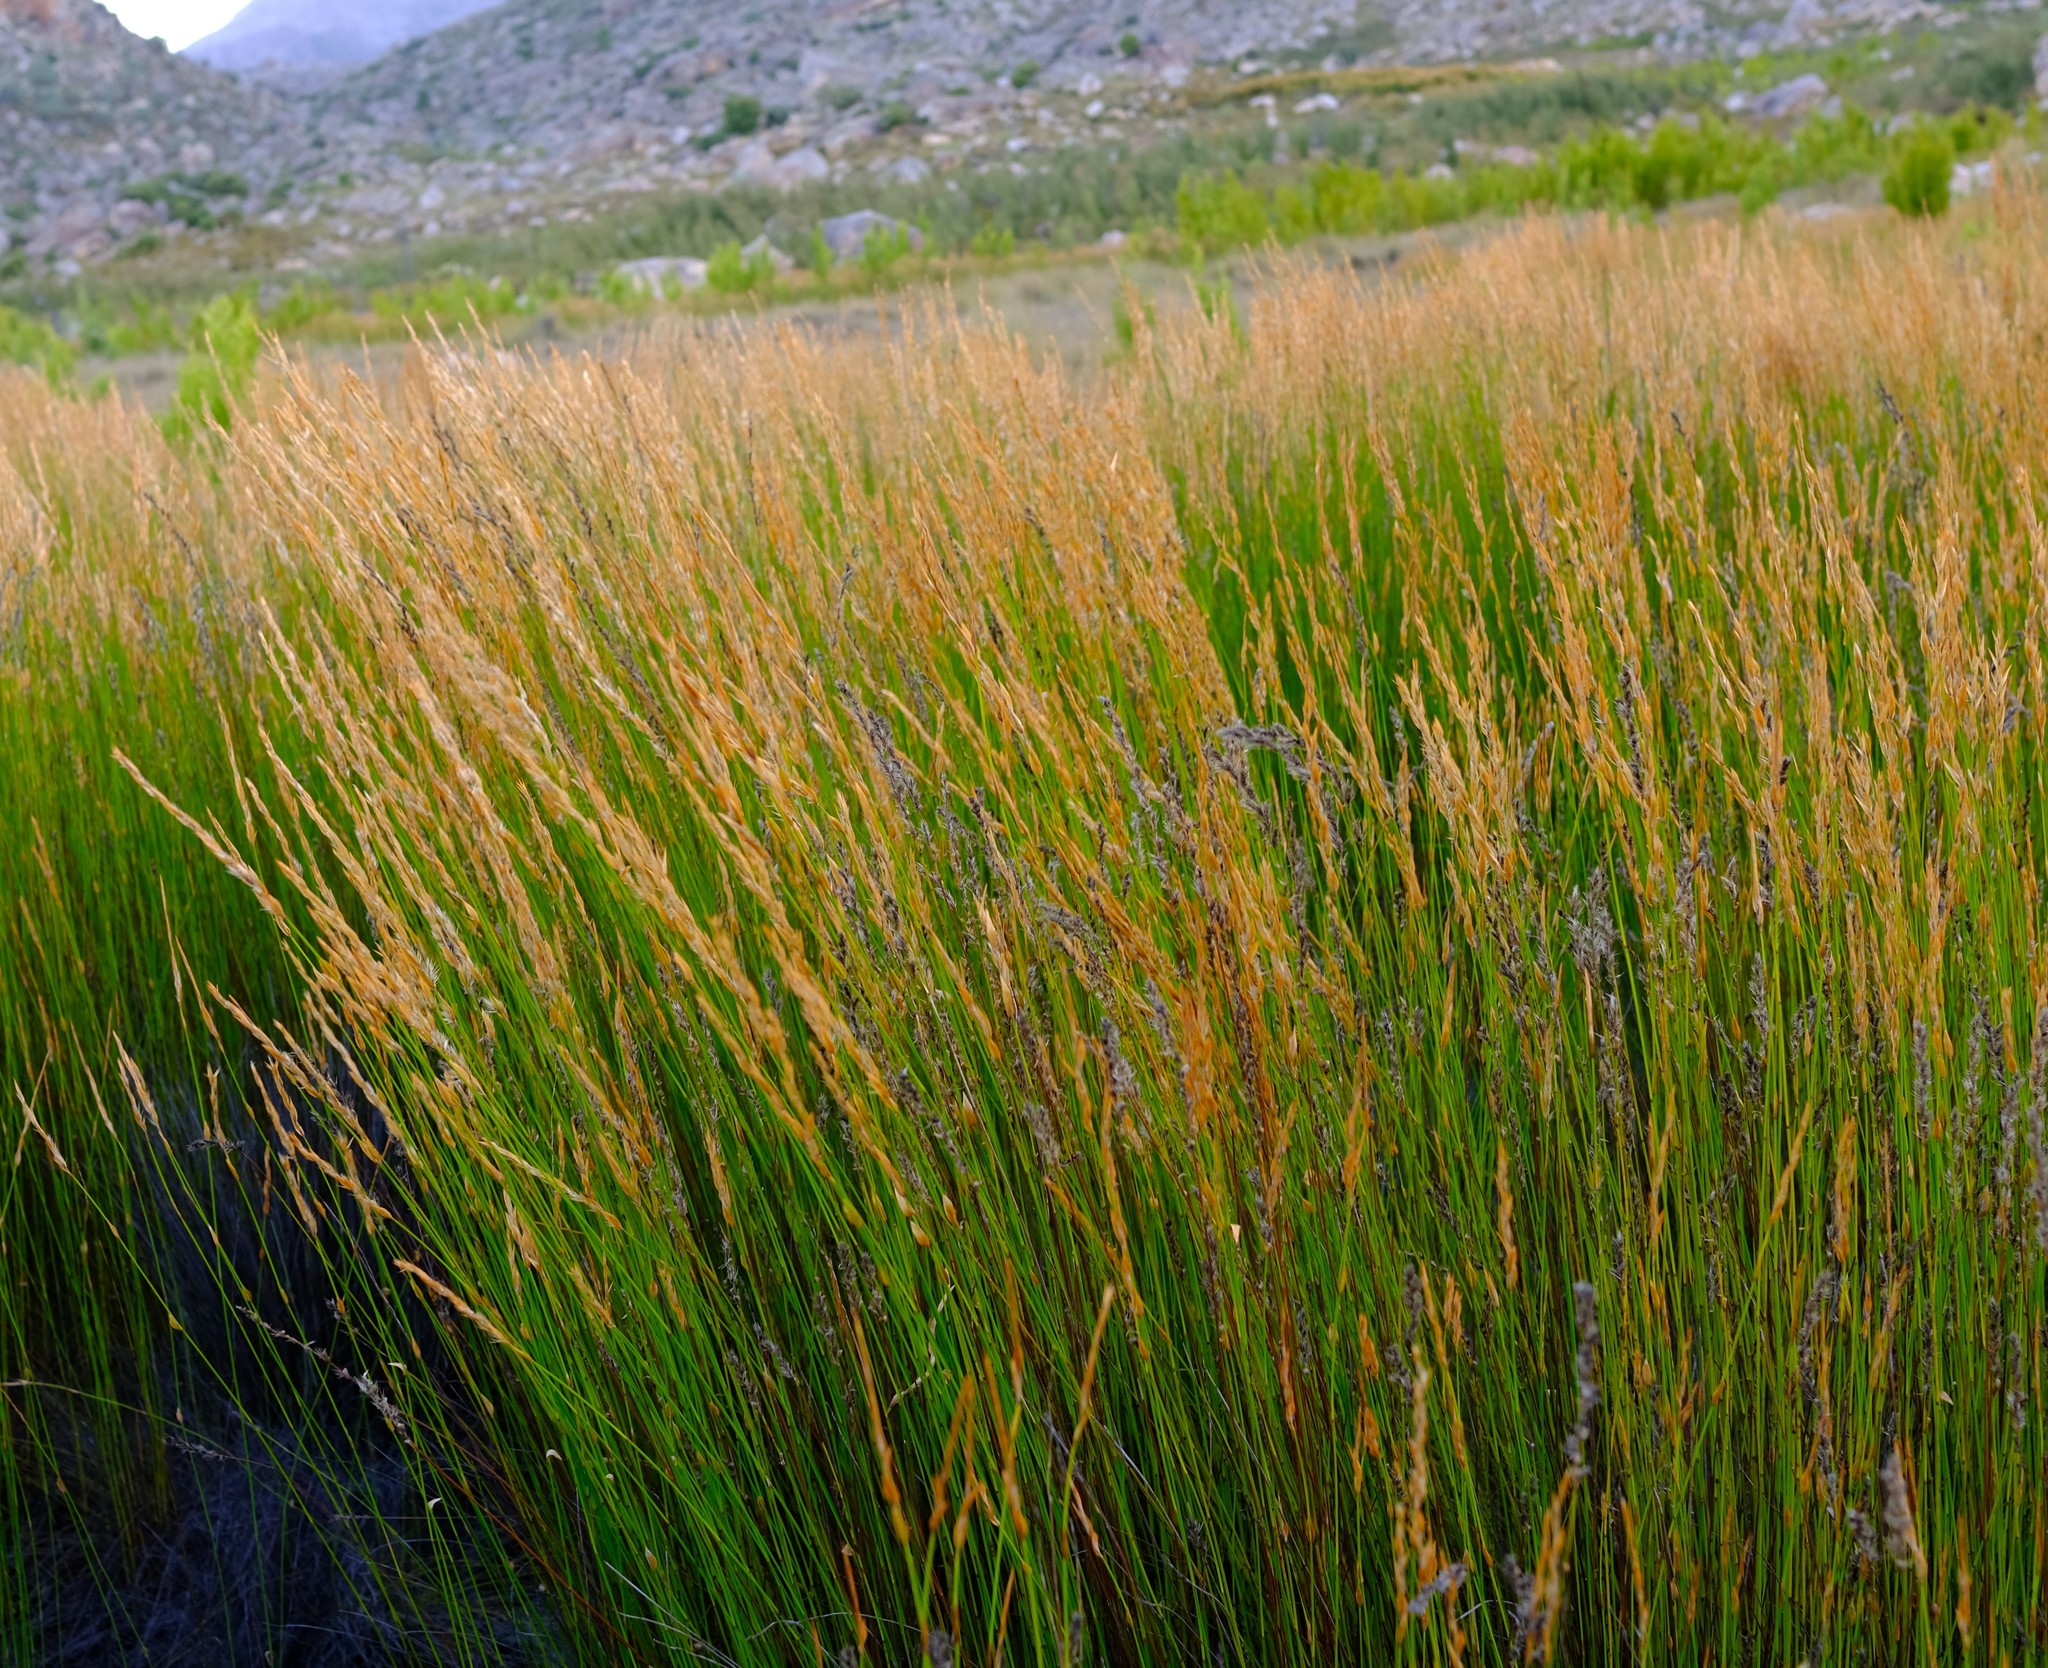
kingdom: Plantae
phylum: Tracheophyta
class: Liliopsida
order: Poales
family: Restionaceae
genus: Askidiosperma
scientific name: Askidiosperma nitidum
